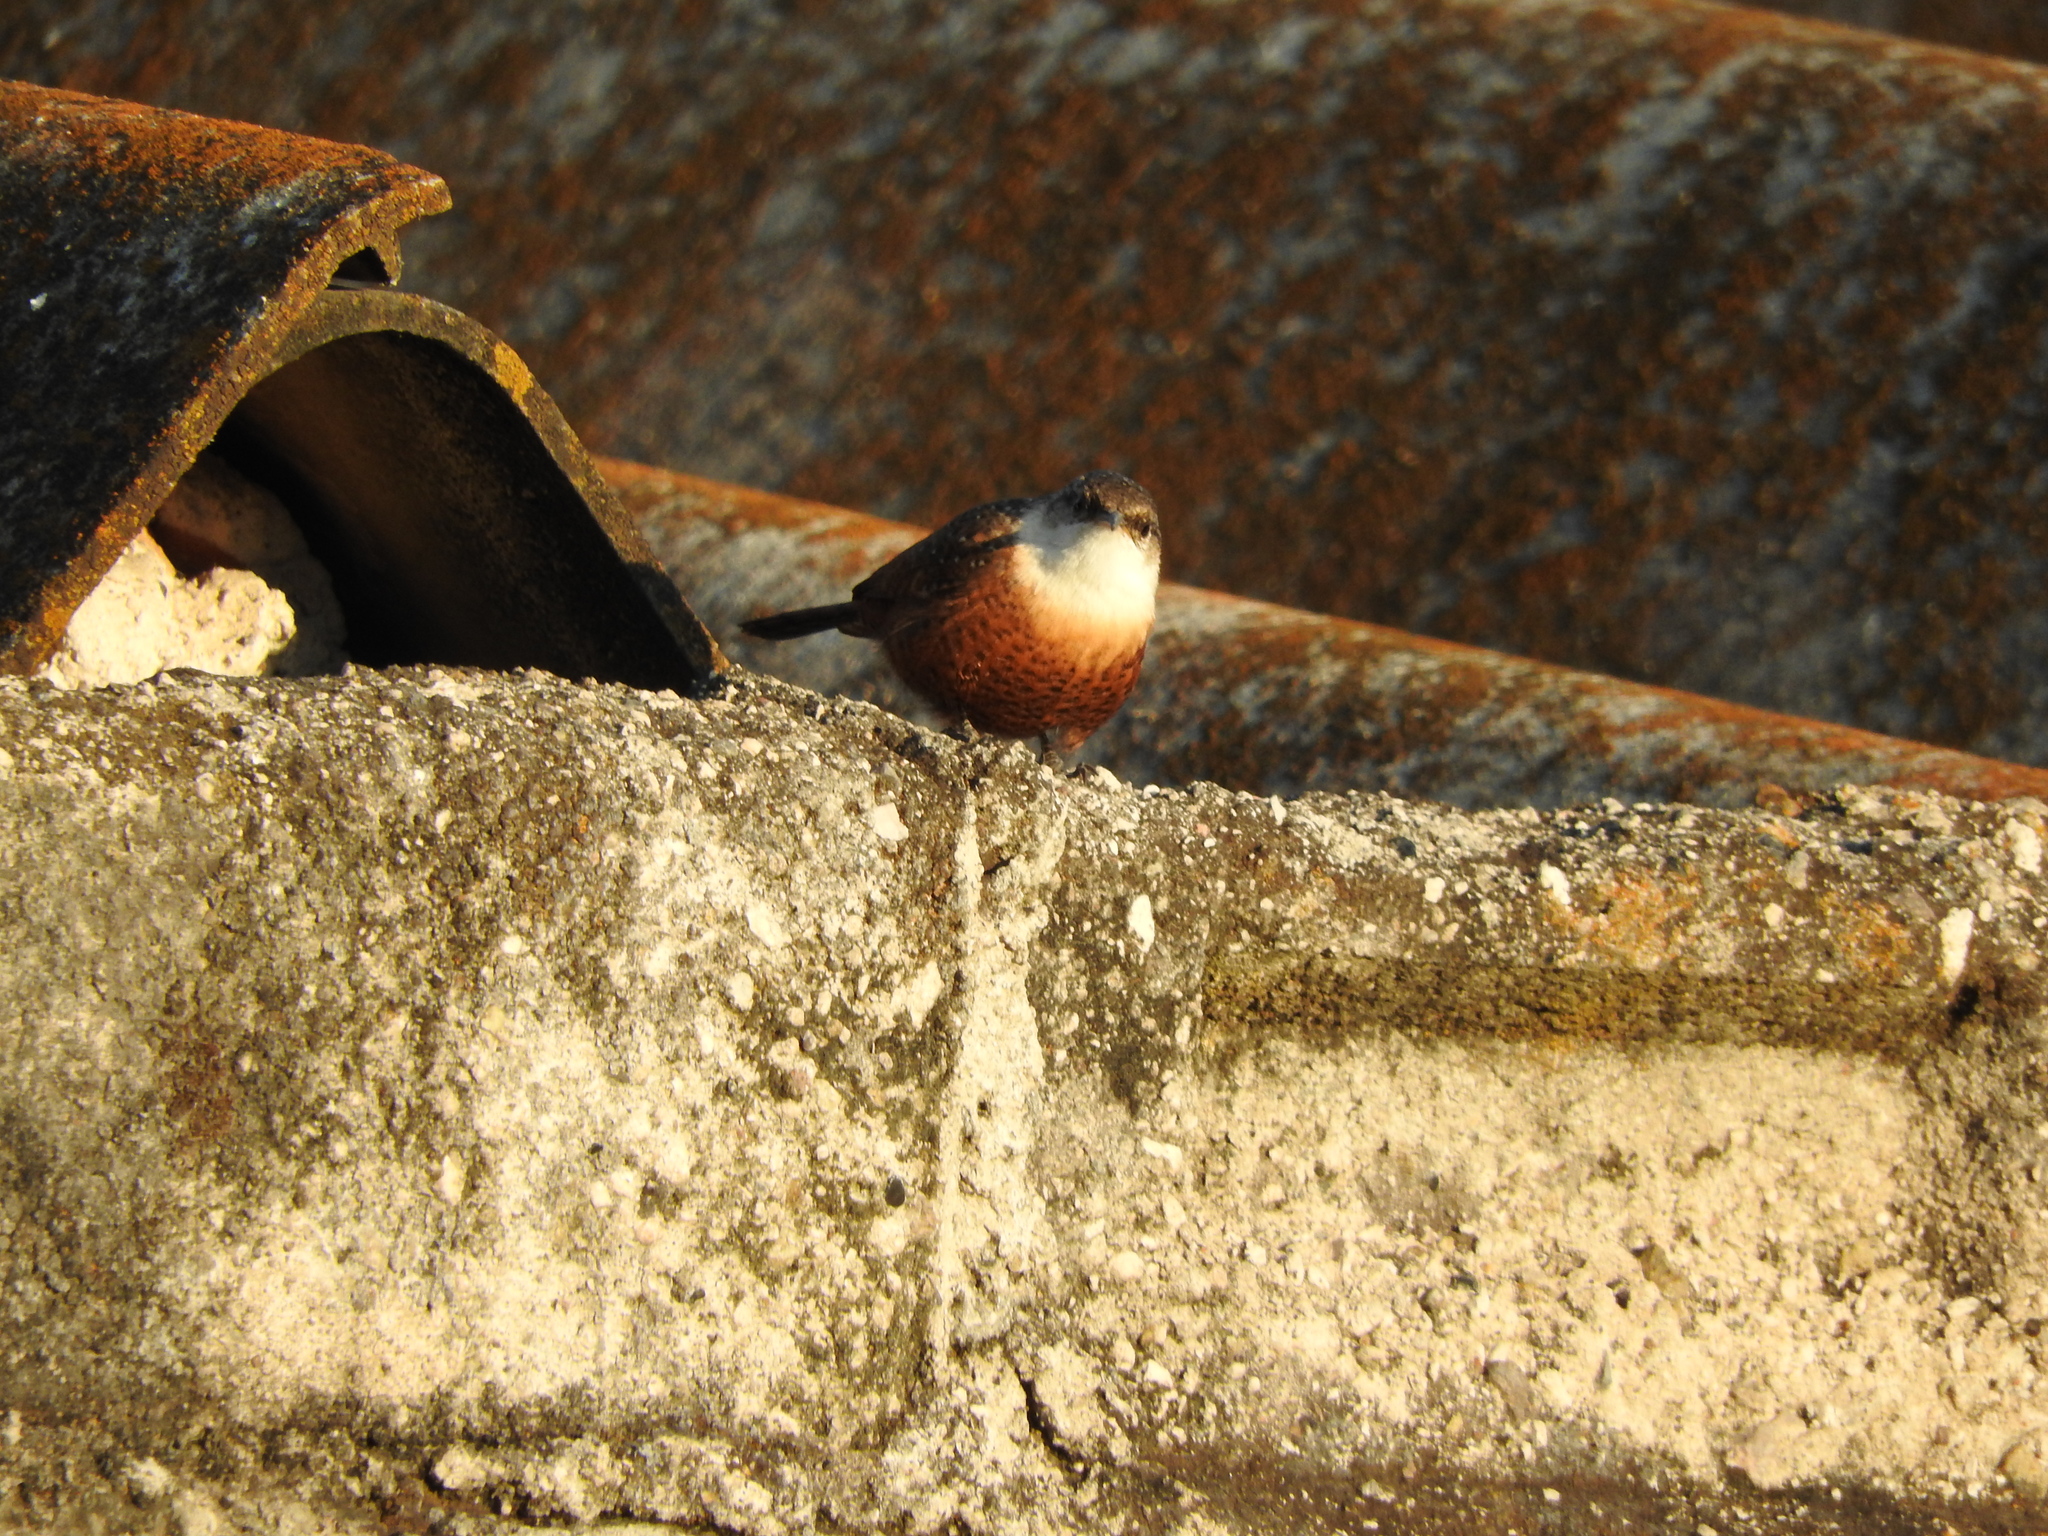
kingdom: Animalia
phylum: Chordata
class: Aves
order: Passeriformes
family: Troglodytidae
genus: Catherpes
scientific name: Catherpes mexicanus
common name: Canyon wren
